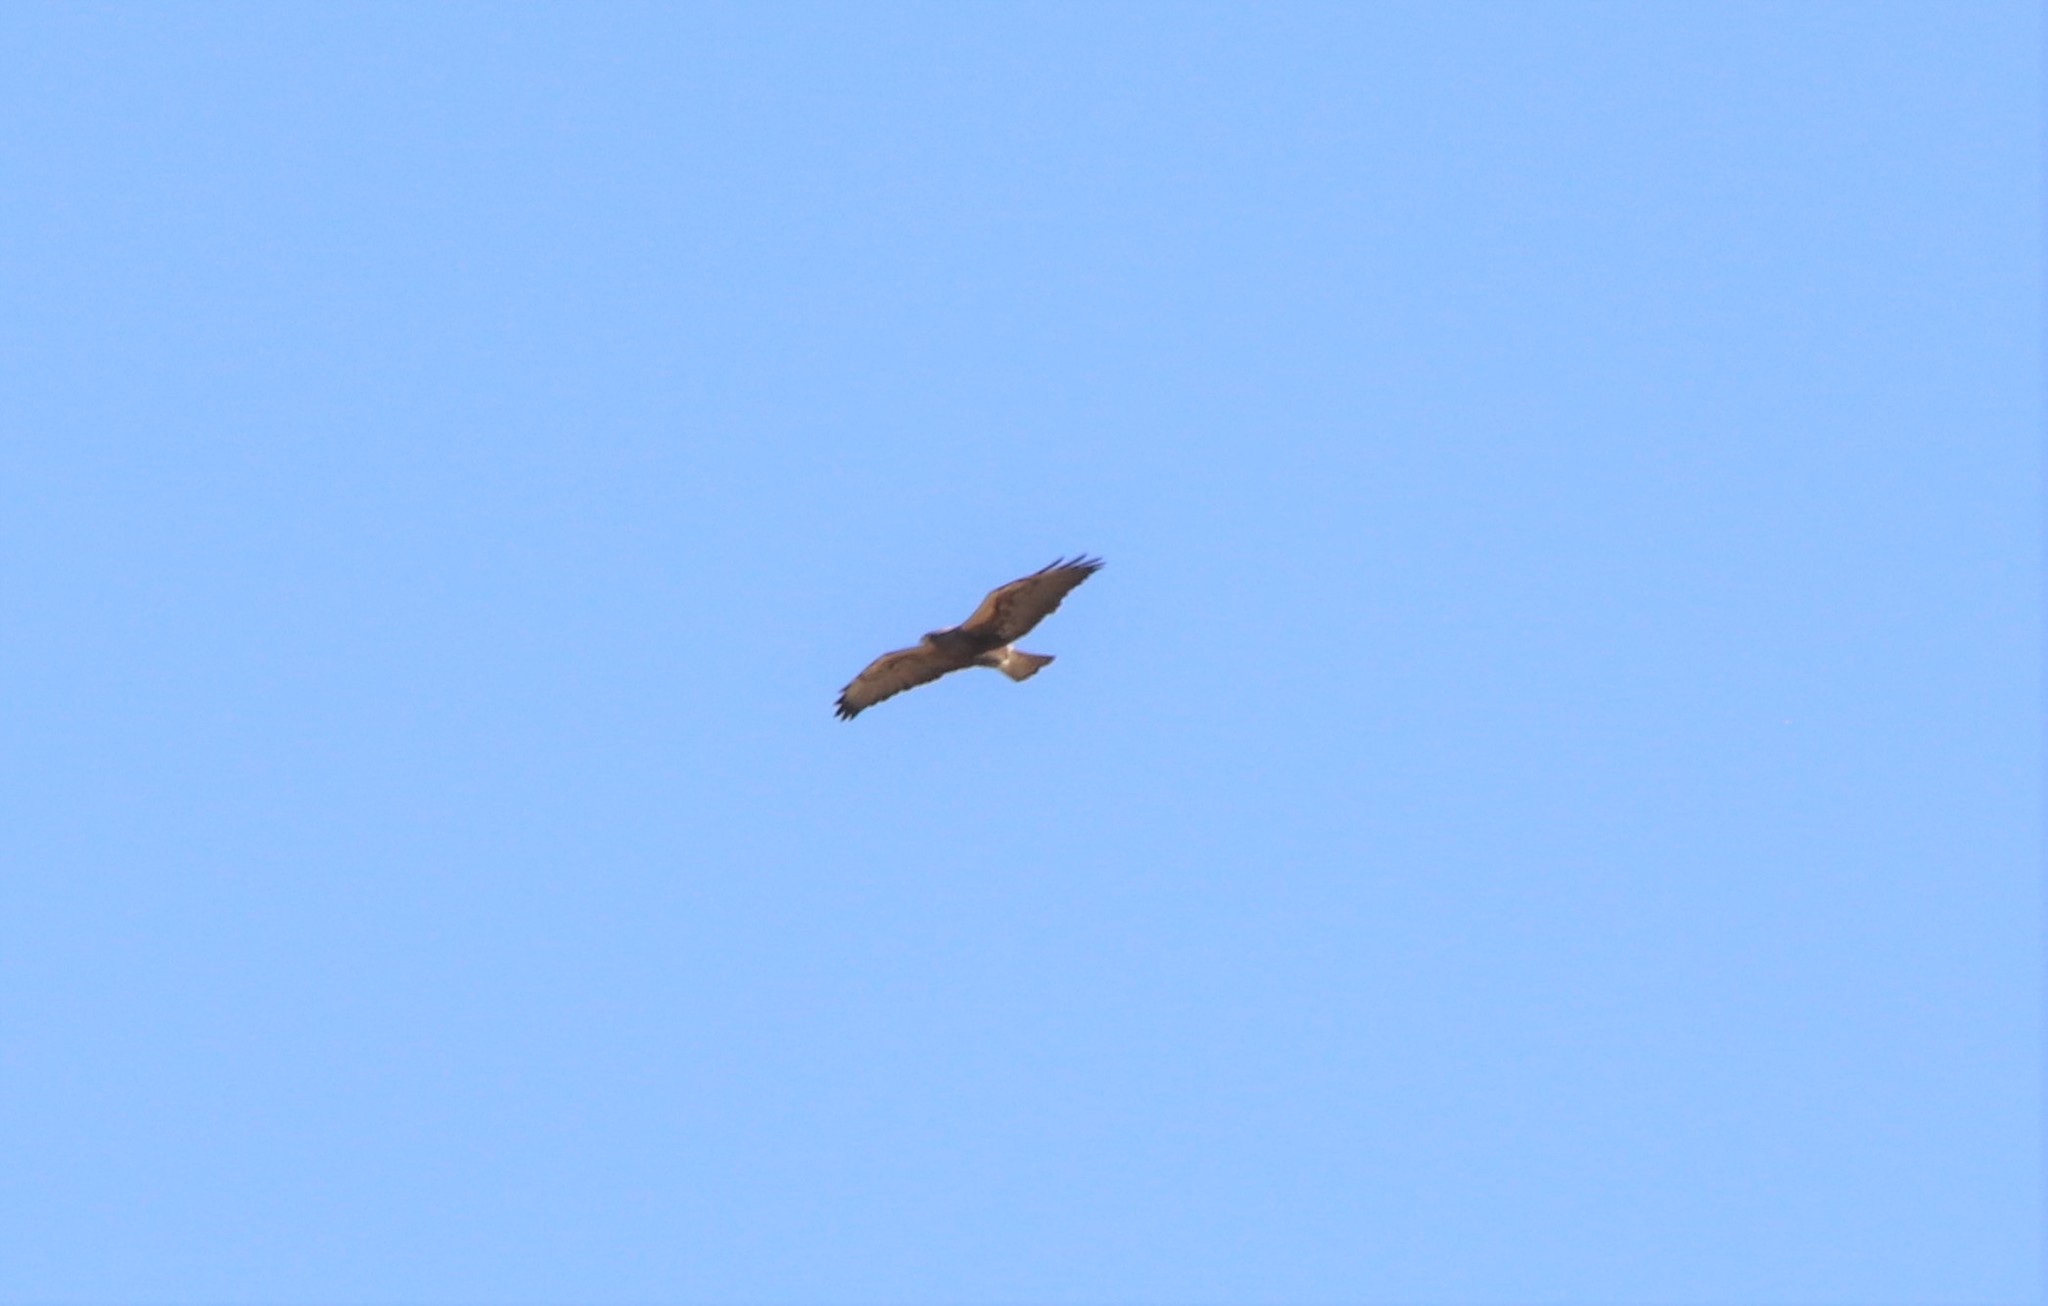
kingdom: Animalia
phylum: Chordata
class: Aves
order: Accipitriformes
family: Accipitridae
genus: Buteo
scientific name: Buteo swainsoni
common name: Swainson's hawk
